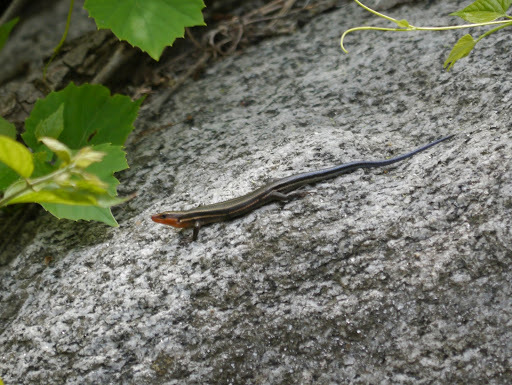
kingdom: Animalia
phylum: Chordata
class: Squamata
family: Scincidae
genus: Plestiodon
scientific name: Plestiodon fasciatus
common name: Five-lined skink
